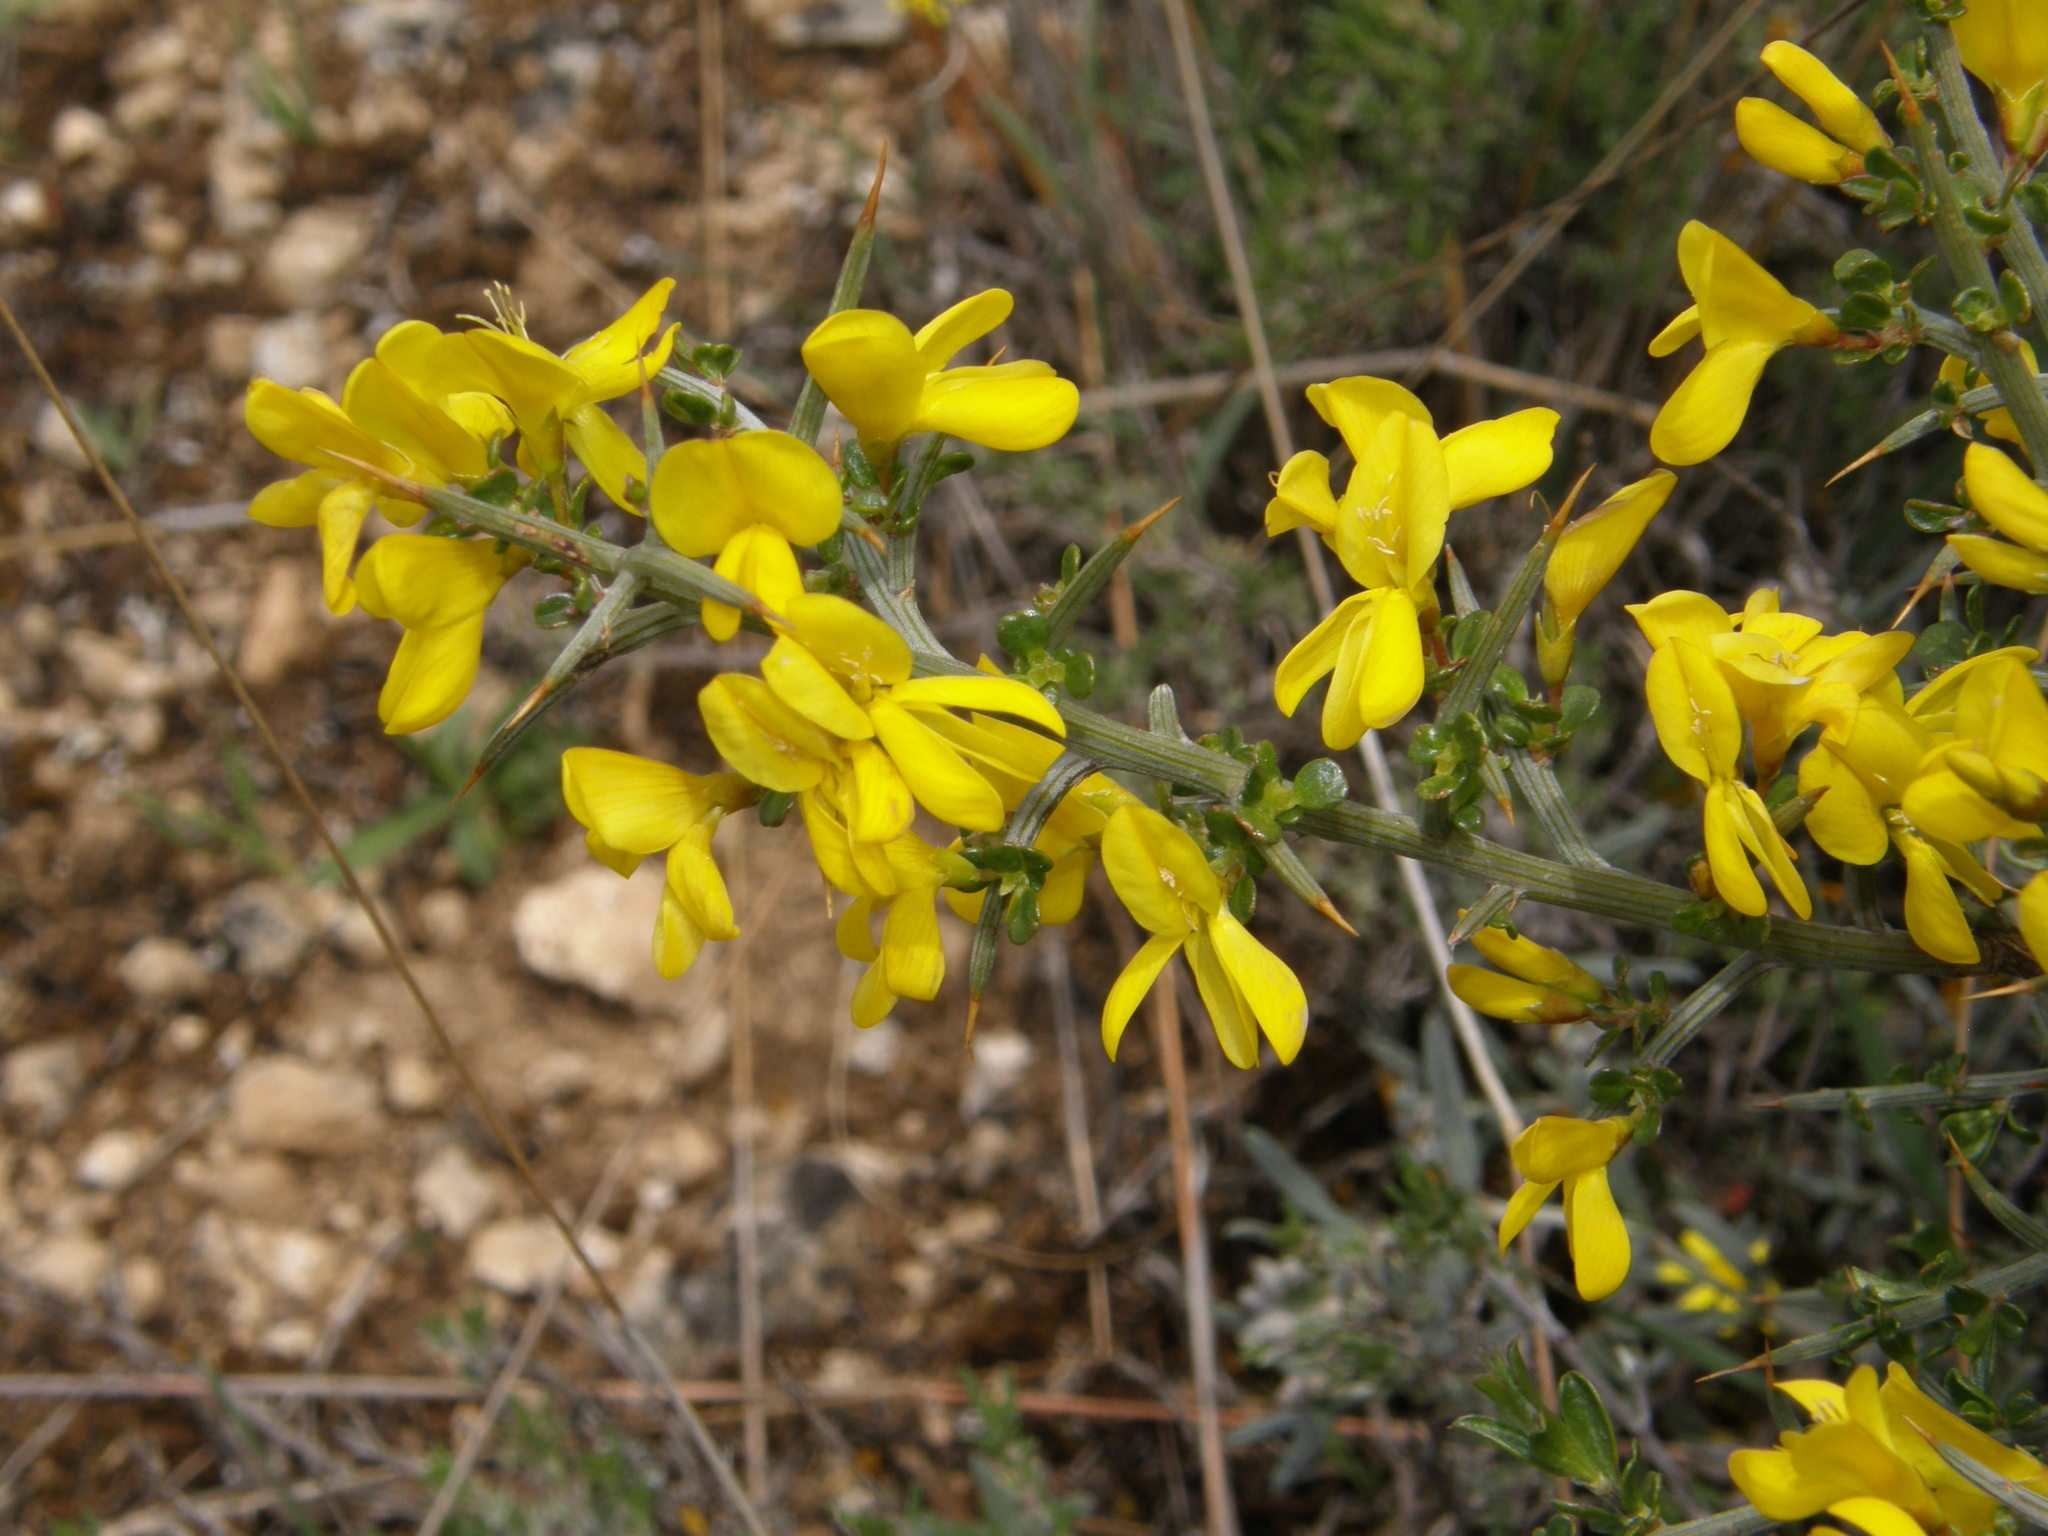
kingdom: Plantae
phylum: Tracheophyta
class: Magnoliopsida
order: Fabales
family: Fabaceae
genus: Genista
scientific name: Genista scorpius
